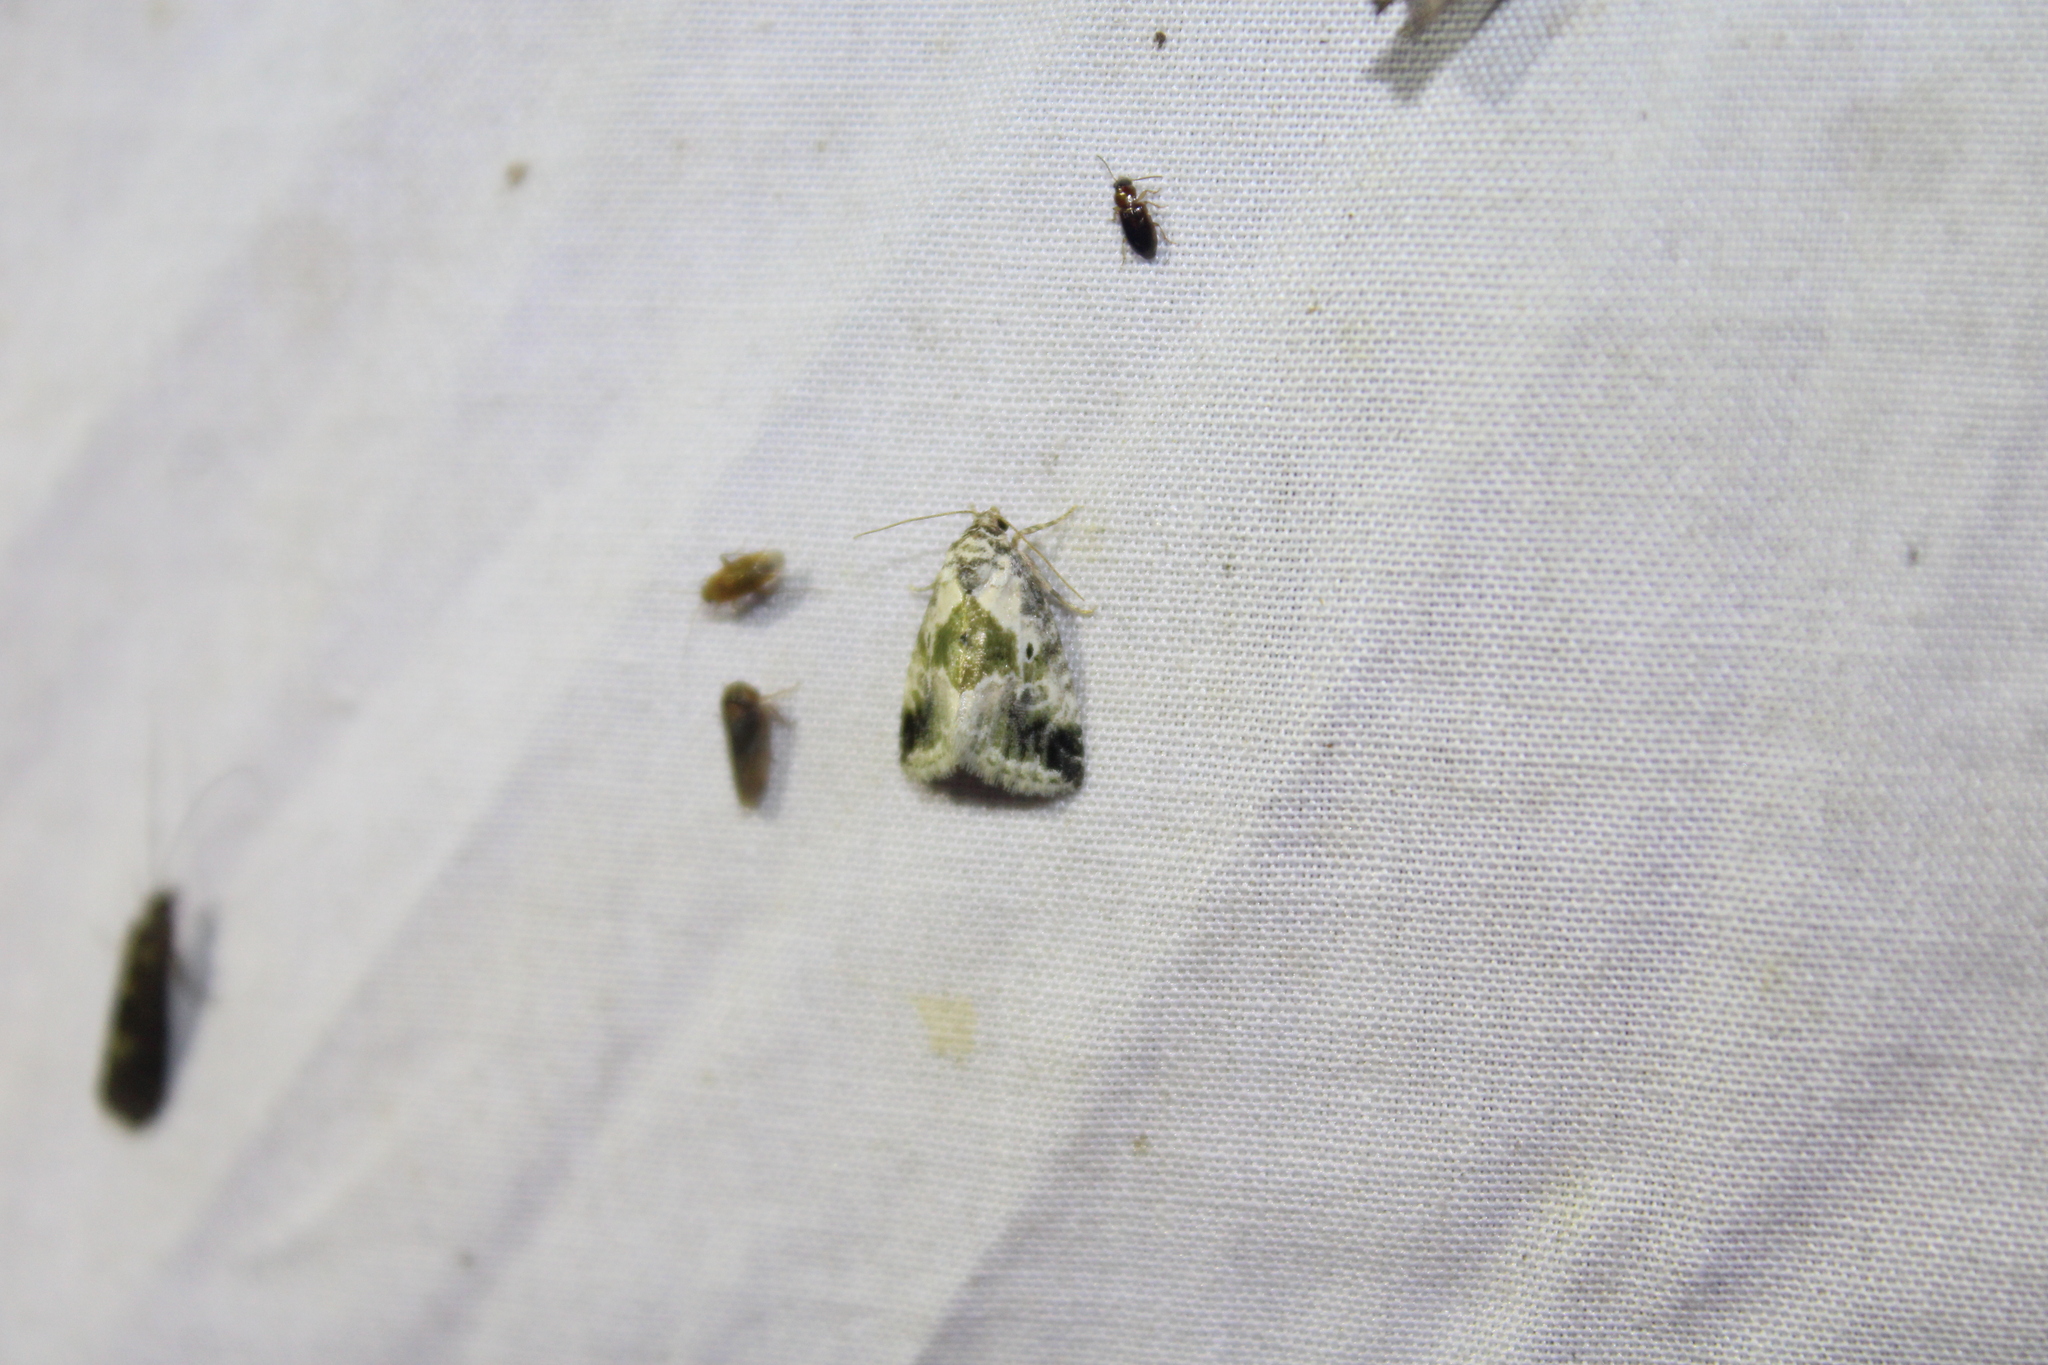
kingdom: Animalia
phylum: Arthropoda
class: Insecta
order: Lepidoptera
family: Noctuidae
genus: Maliattha
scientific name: Maliattha synochitis
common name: Black-dotted glyph
